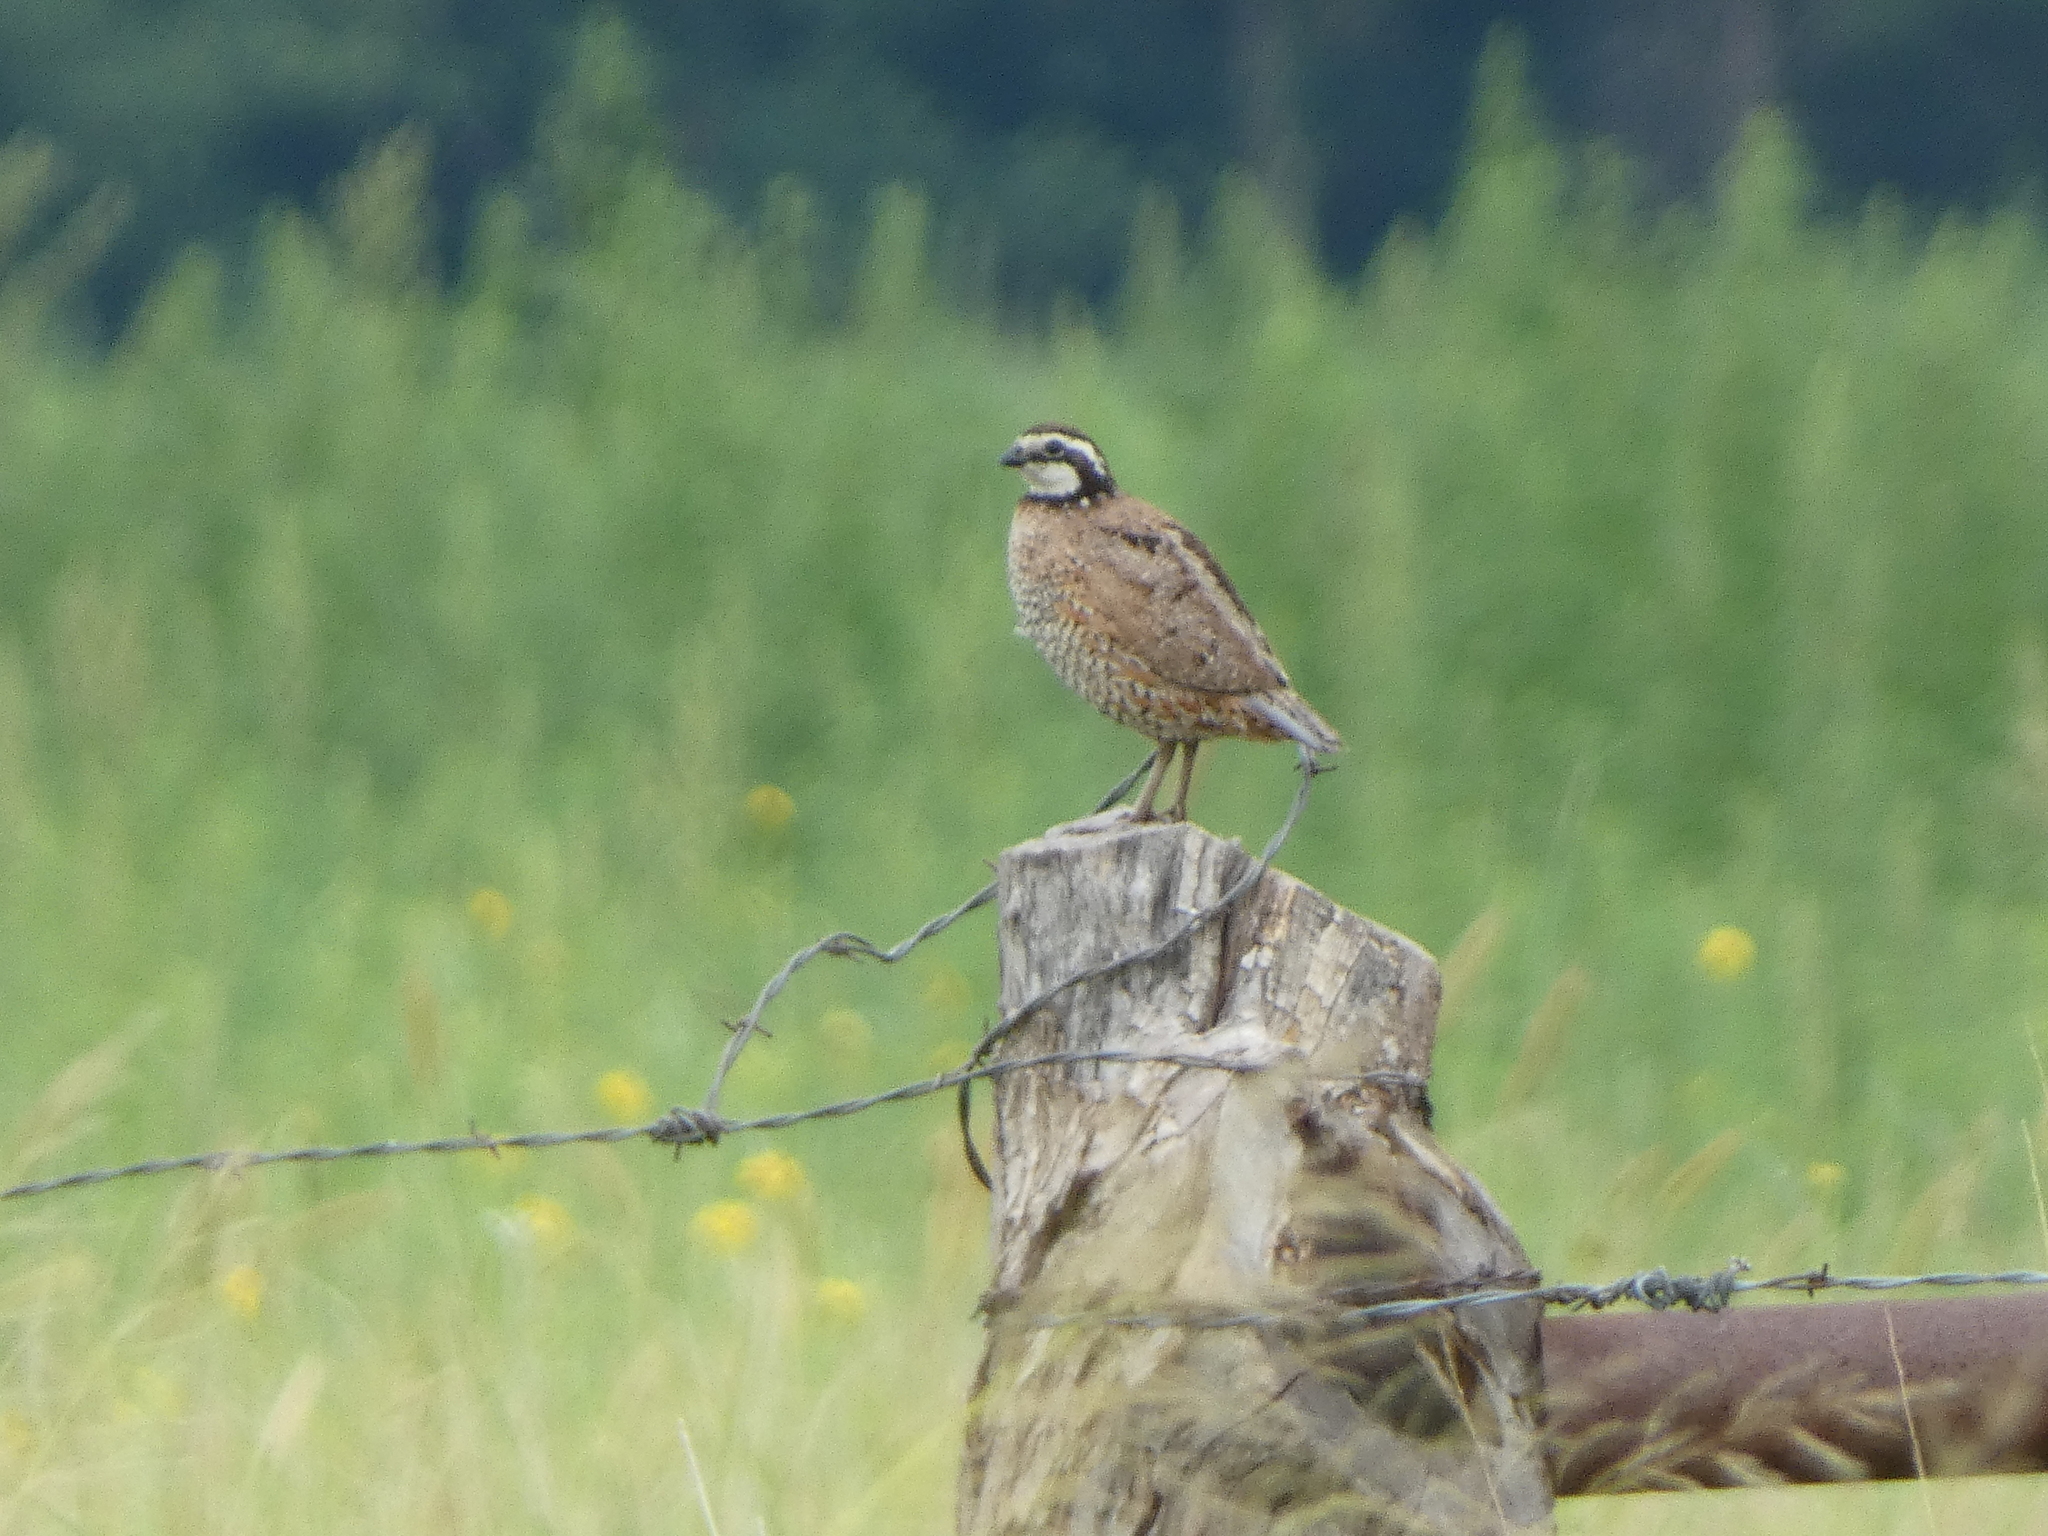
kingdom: Animalia
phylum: Chordata
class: Aves
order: Galliformes
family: Odontophoridae
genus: Colinus
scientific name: Colinus virginianus
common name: Northern bobwhite
